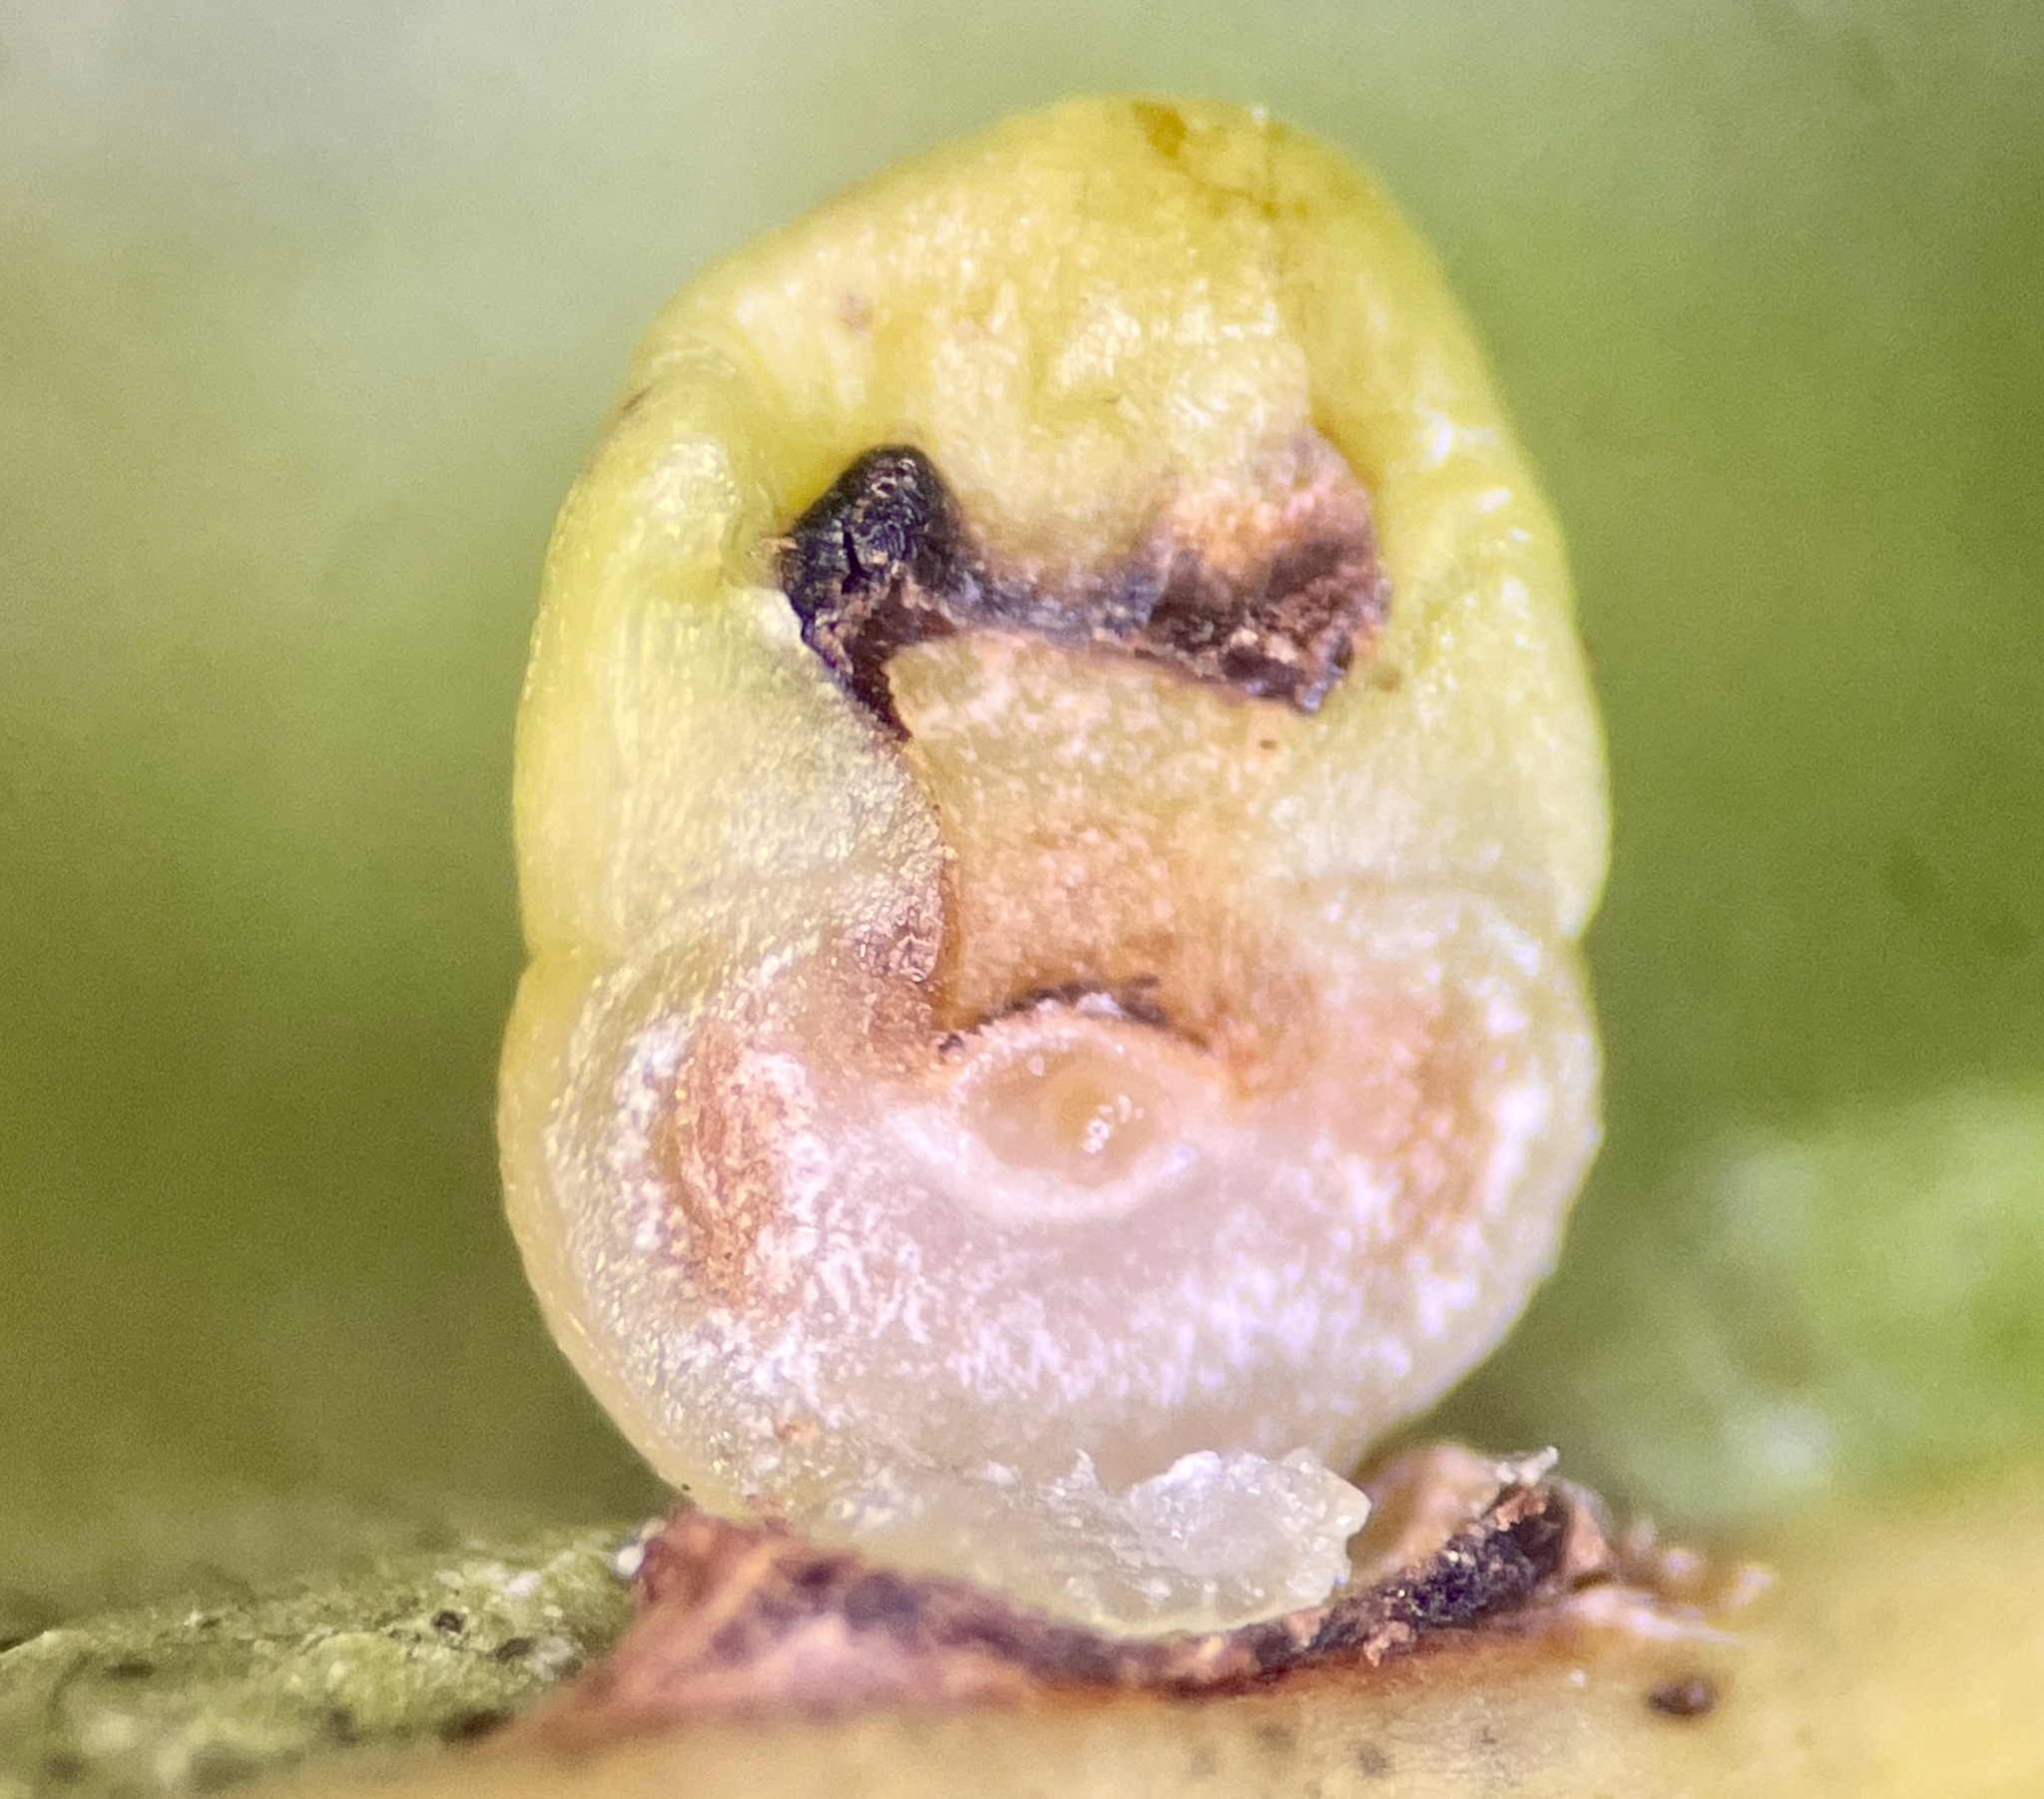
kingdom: Animalia
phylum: Arthropoda
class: Insecta
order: Hymenoptera
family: Cynipidae
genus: Kokkocynips
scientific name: Kokkocynips rileyi
